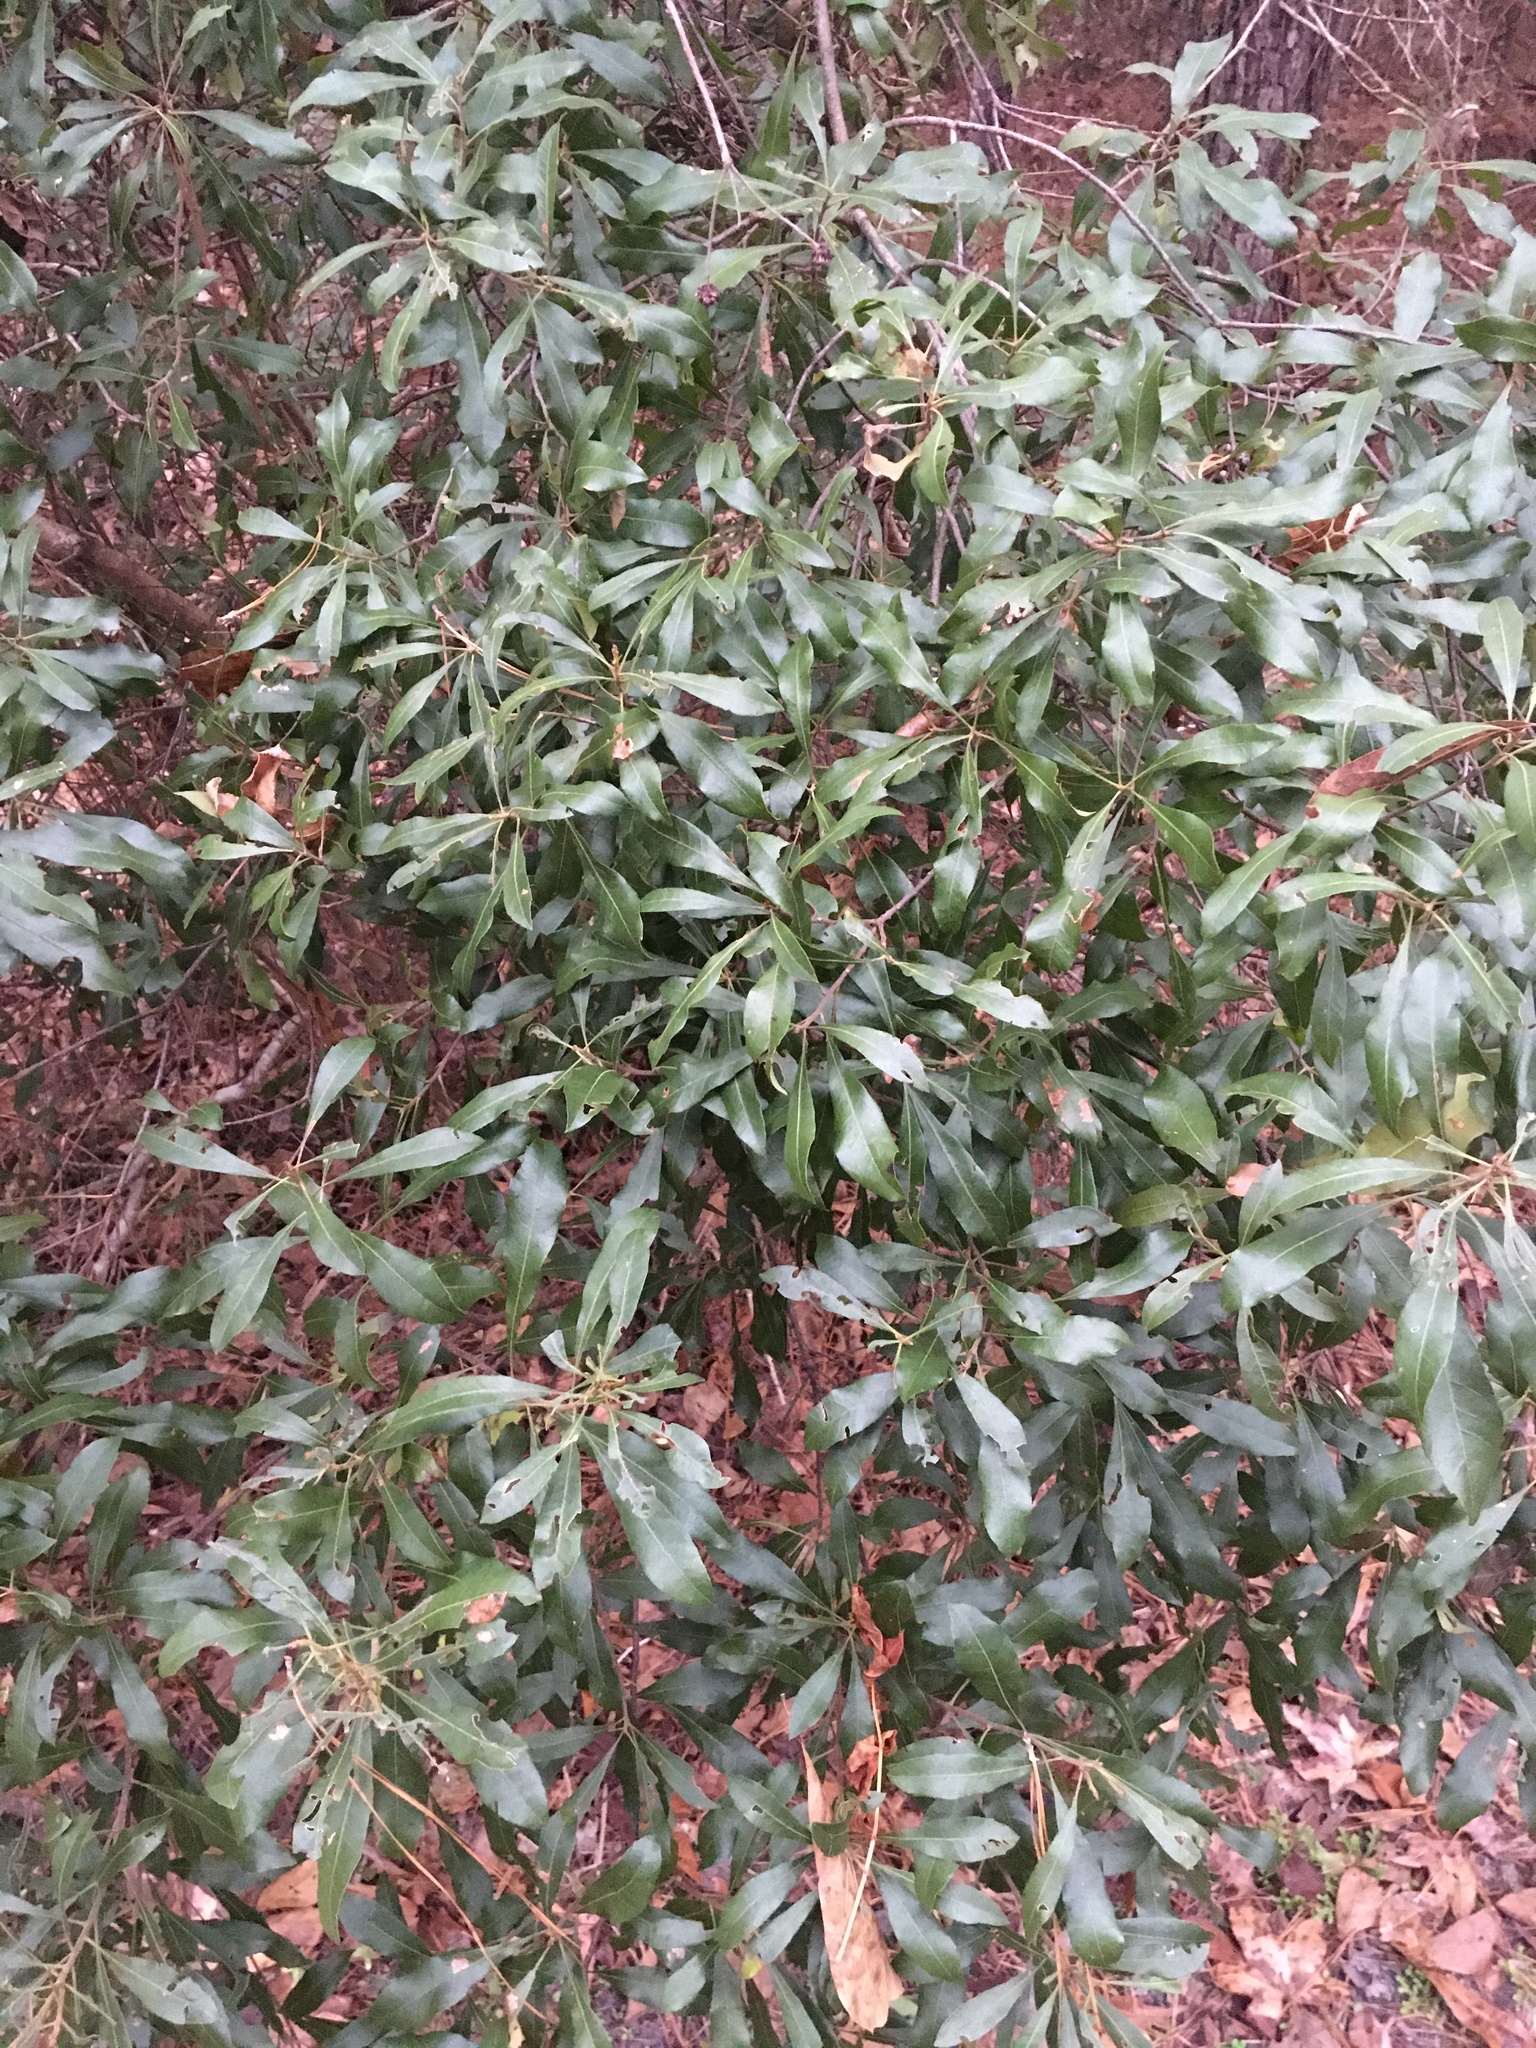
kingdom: Plantae
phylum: Tracheophyta
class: Magnoliopsida
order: Fagales
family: Myricaceae
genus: Morella
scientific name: Morella cerifera
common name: Wax myrtle
